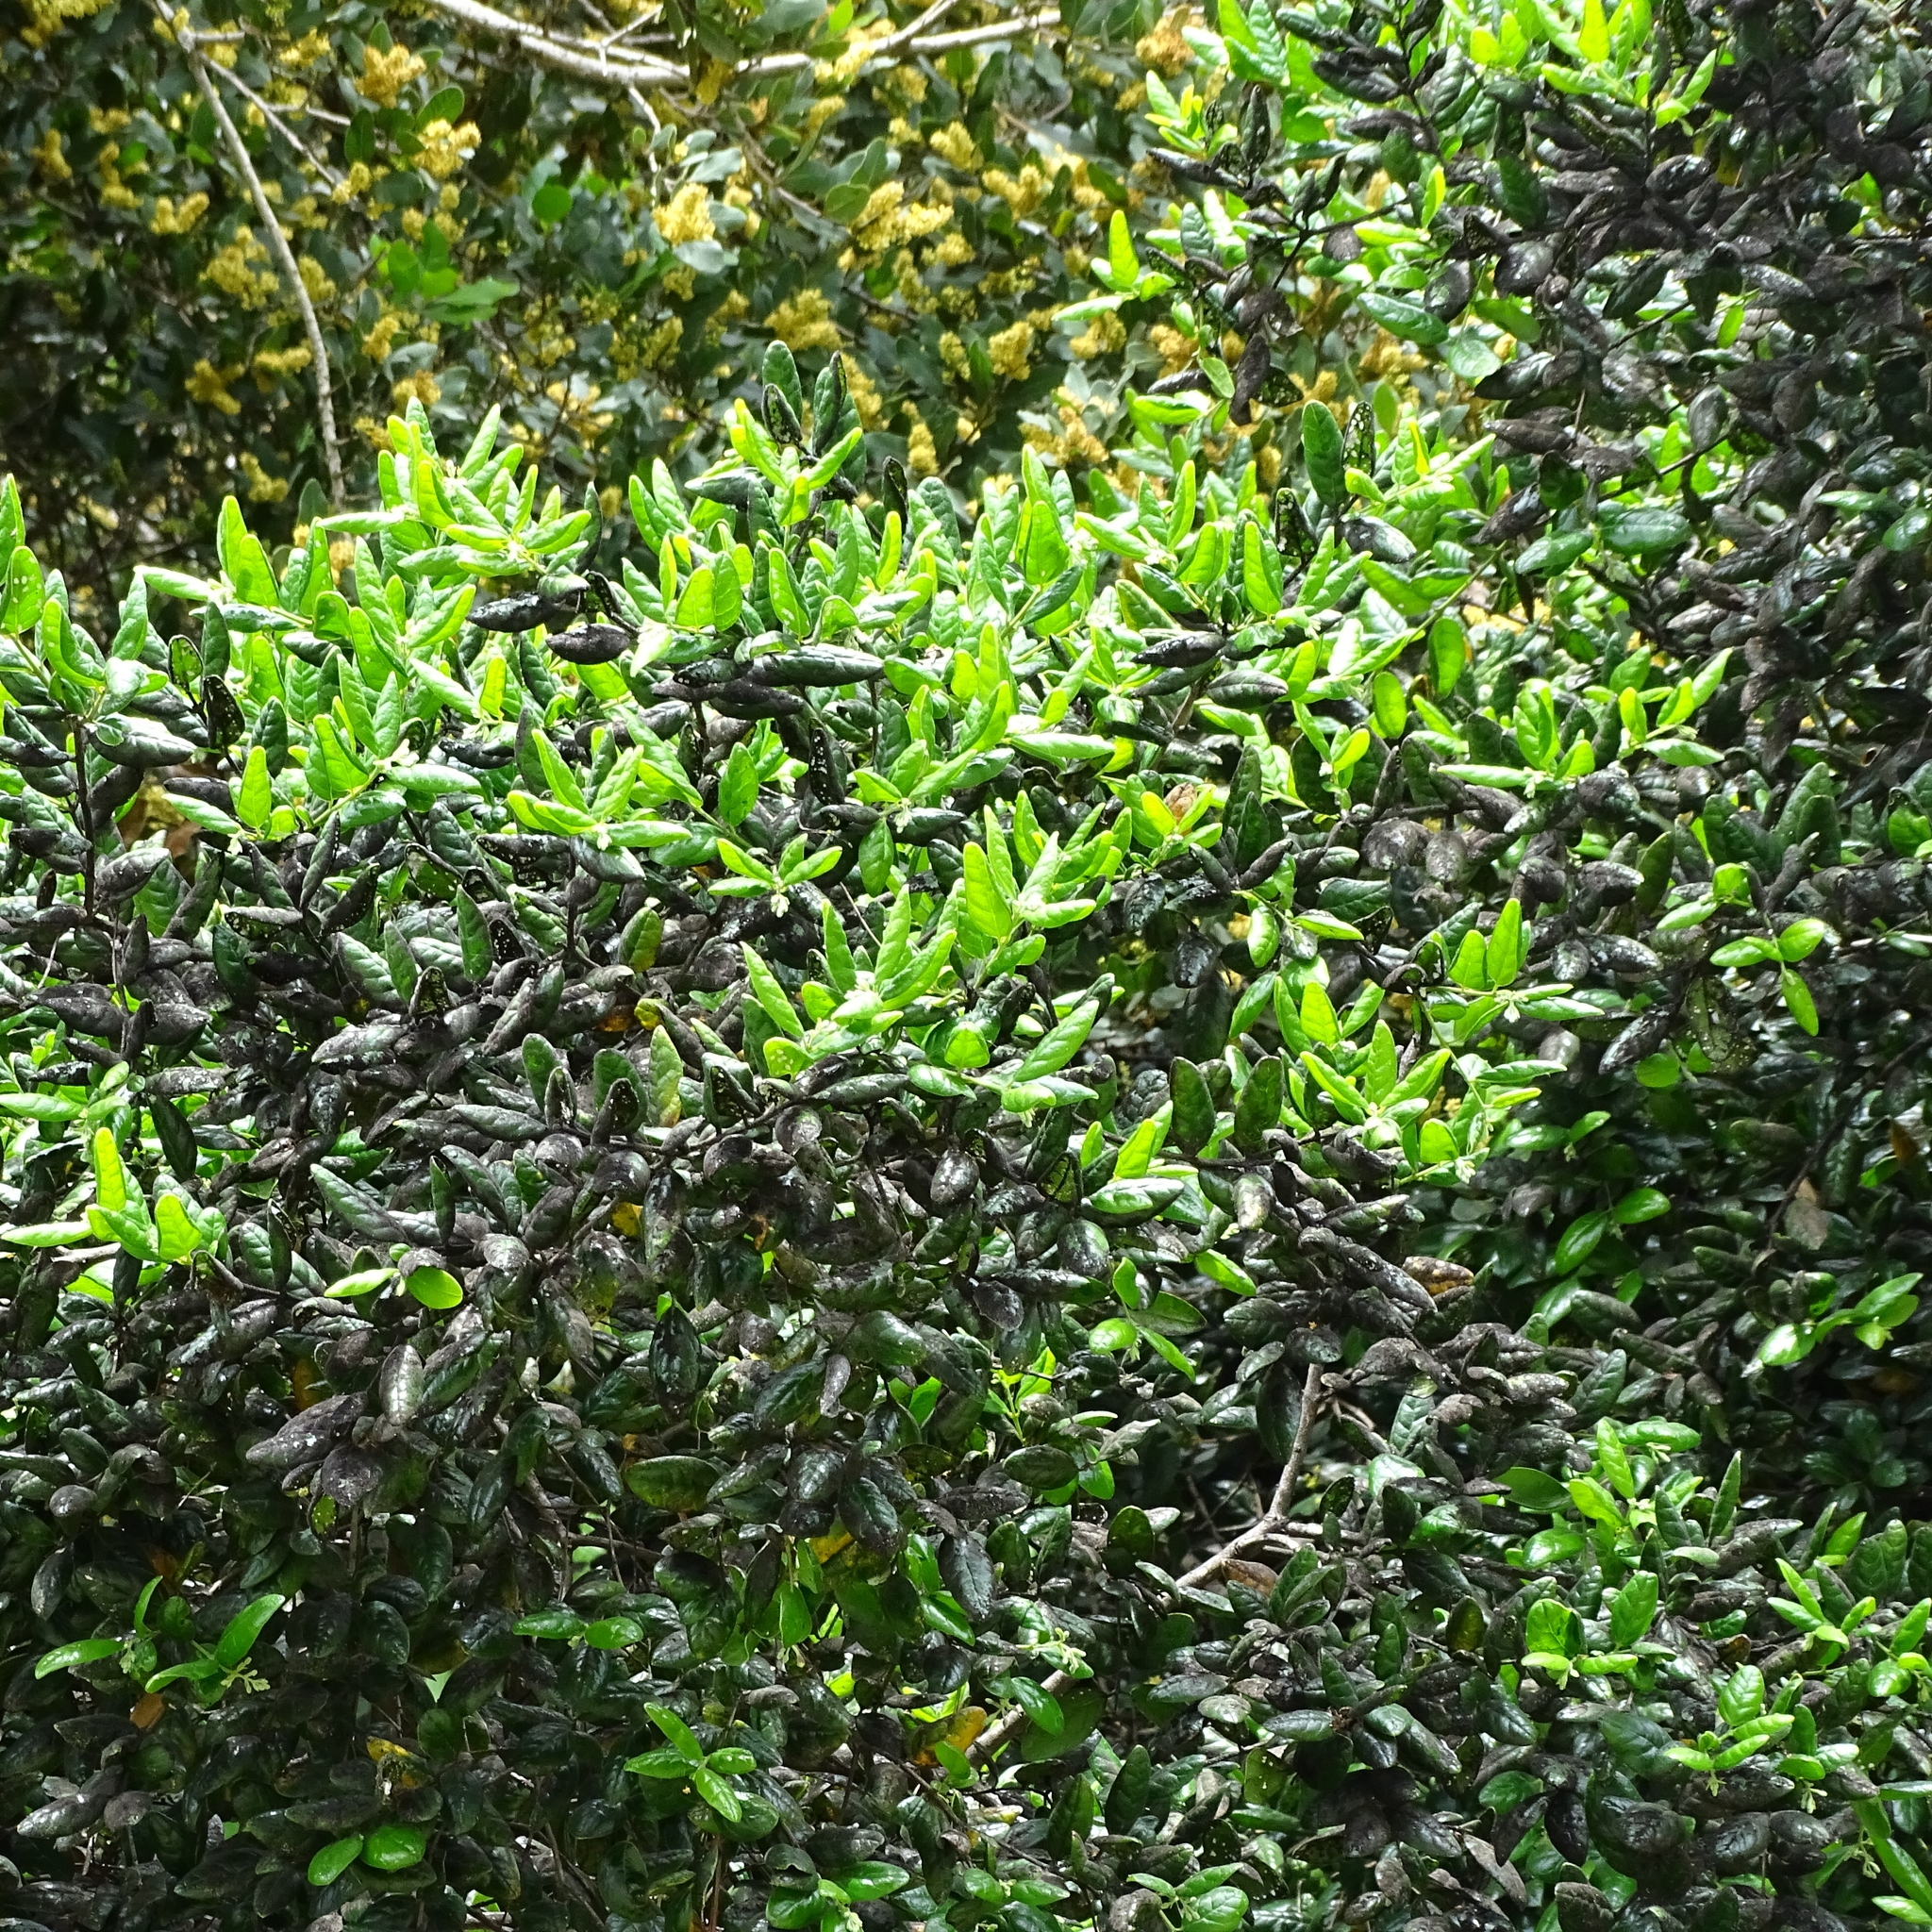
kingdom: Plantae
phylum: Tracheophyta
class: Magnoliopsida
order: Laurales
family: Monimiaceae
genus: Peumus
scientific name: Peumus boldus
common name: Boldo
